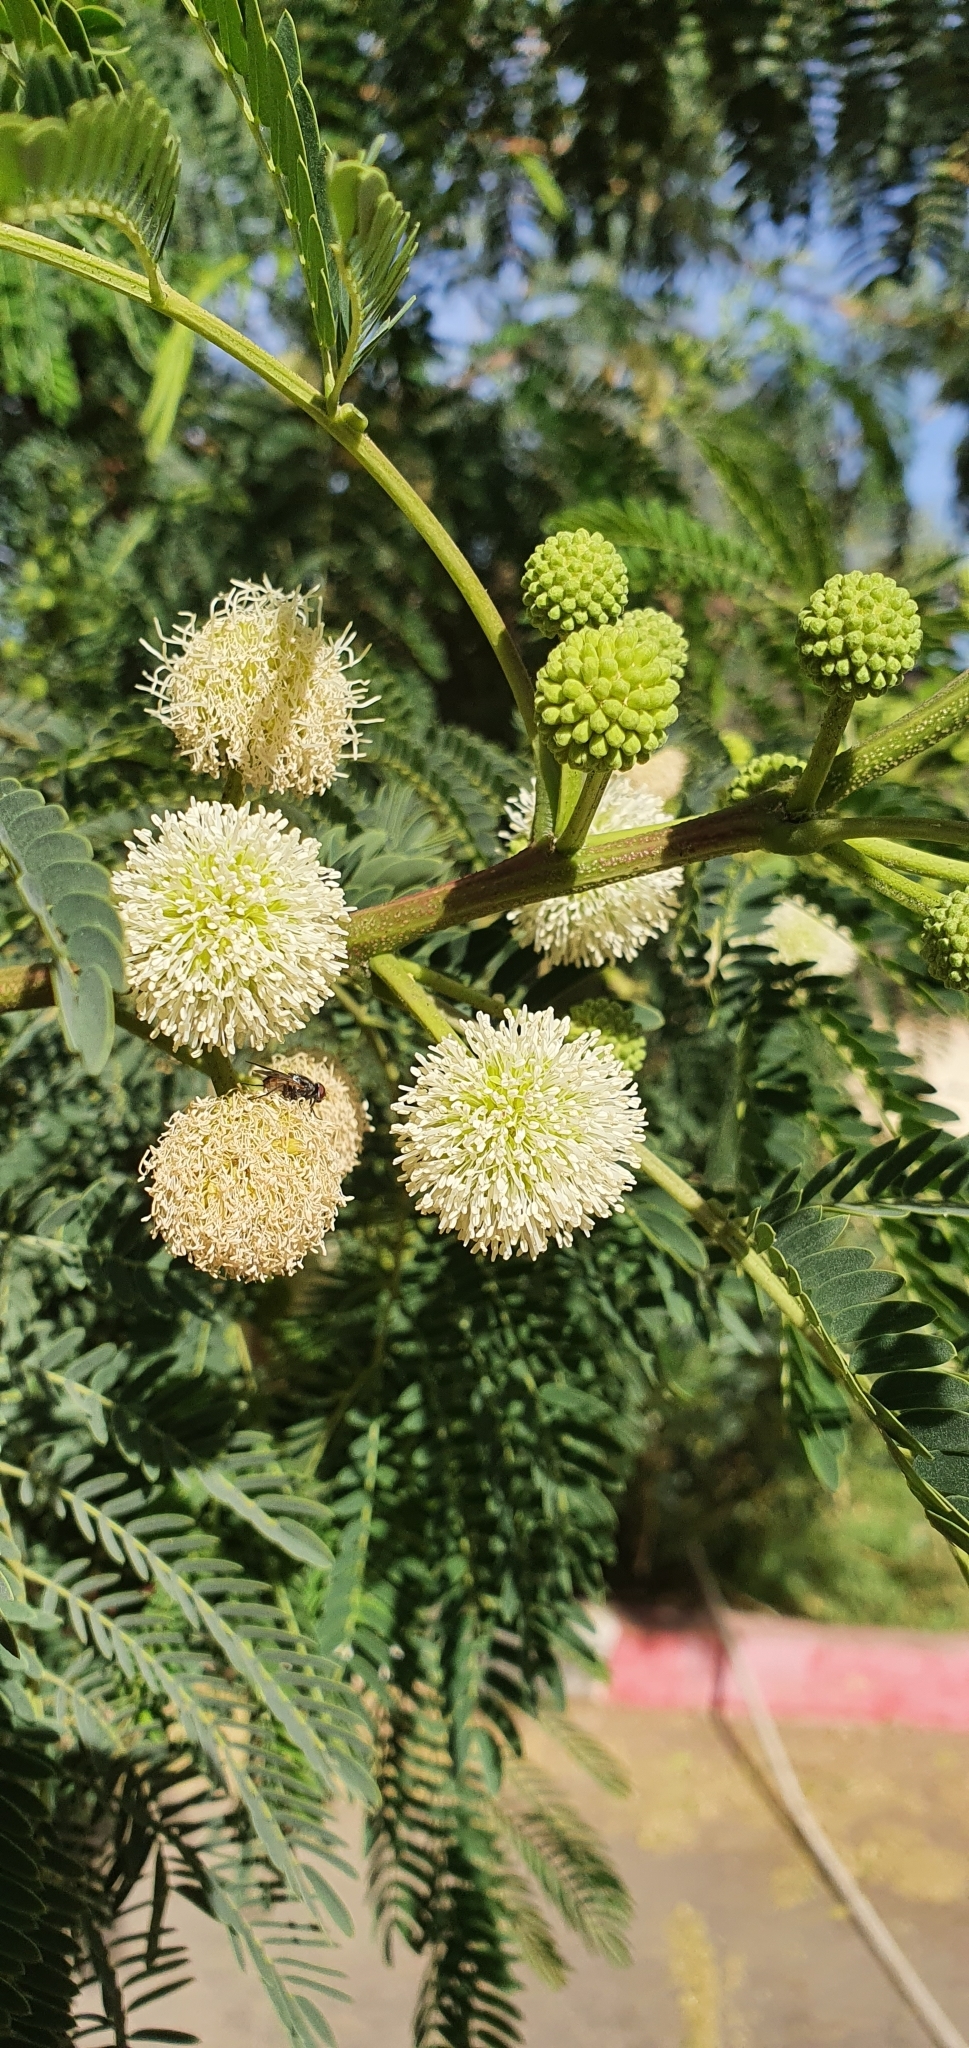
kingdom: Plantae
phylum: Tracheophyta
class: Magnoliopsida
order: Fabales
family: Fabaceae
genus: Leucaena
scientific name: Leucaena leucocephala
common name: White leadtree
